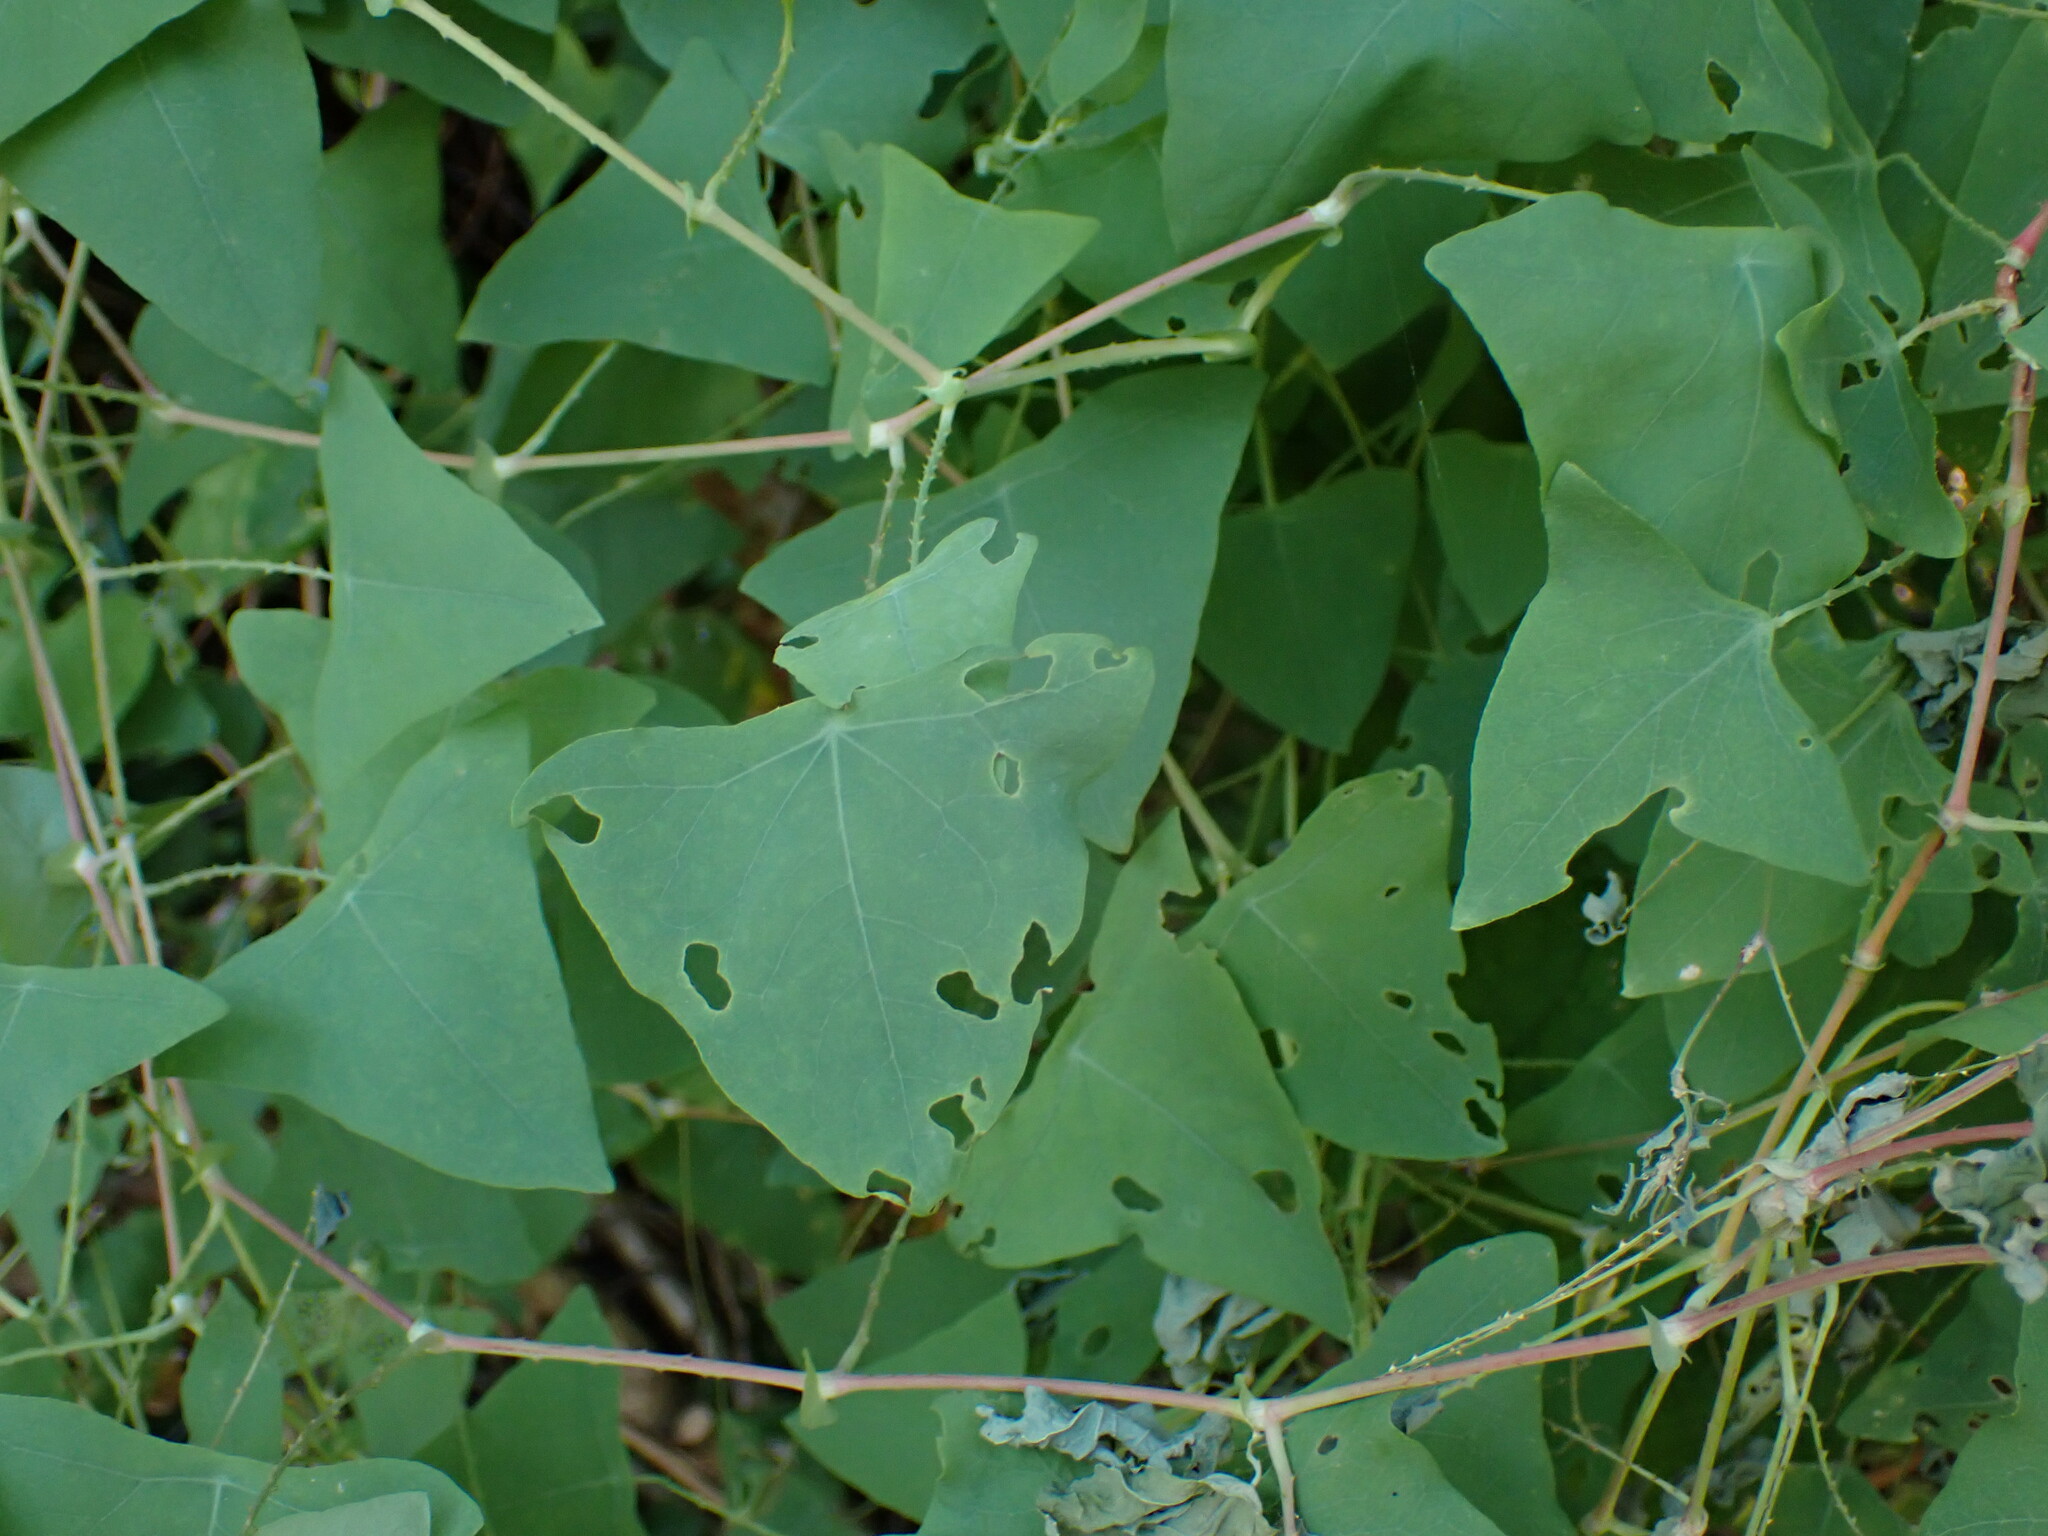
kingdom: Plantae
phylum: Tracheophyta
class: Magnoliopsida
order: Caryophyllales
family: Polygonaceae
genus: Persicaria
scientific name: Persicaria perfoliata
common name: Asiatic tearthumb
